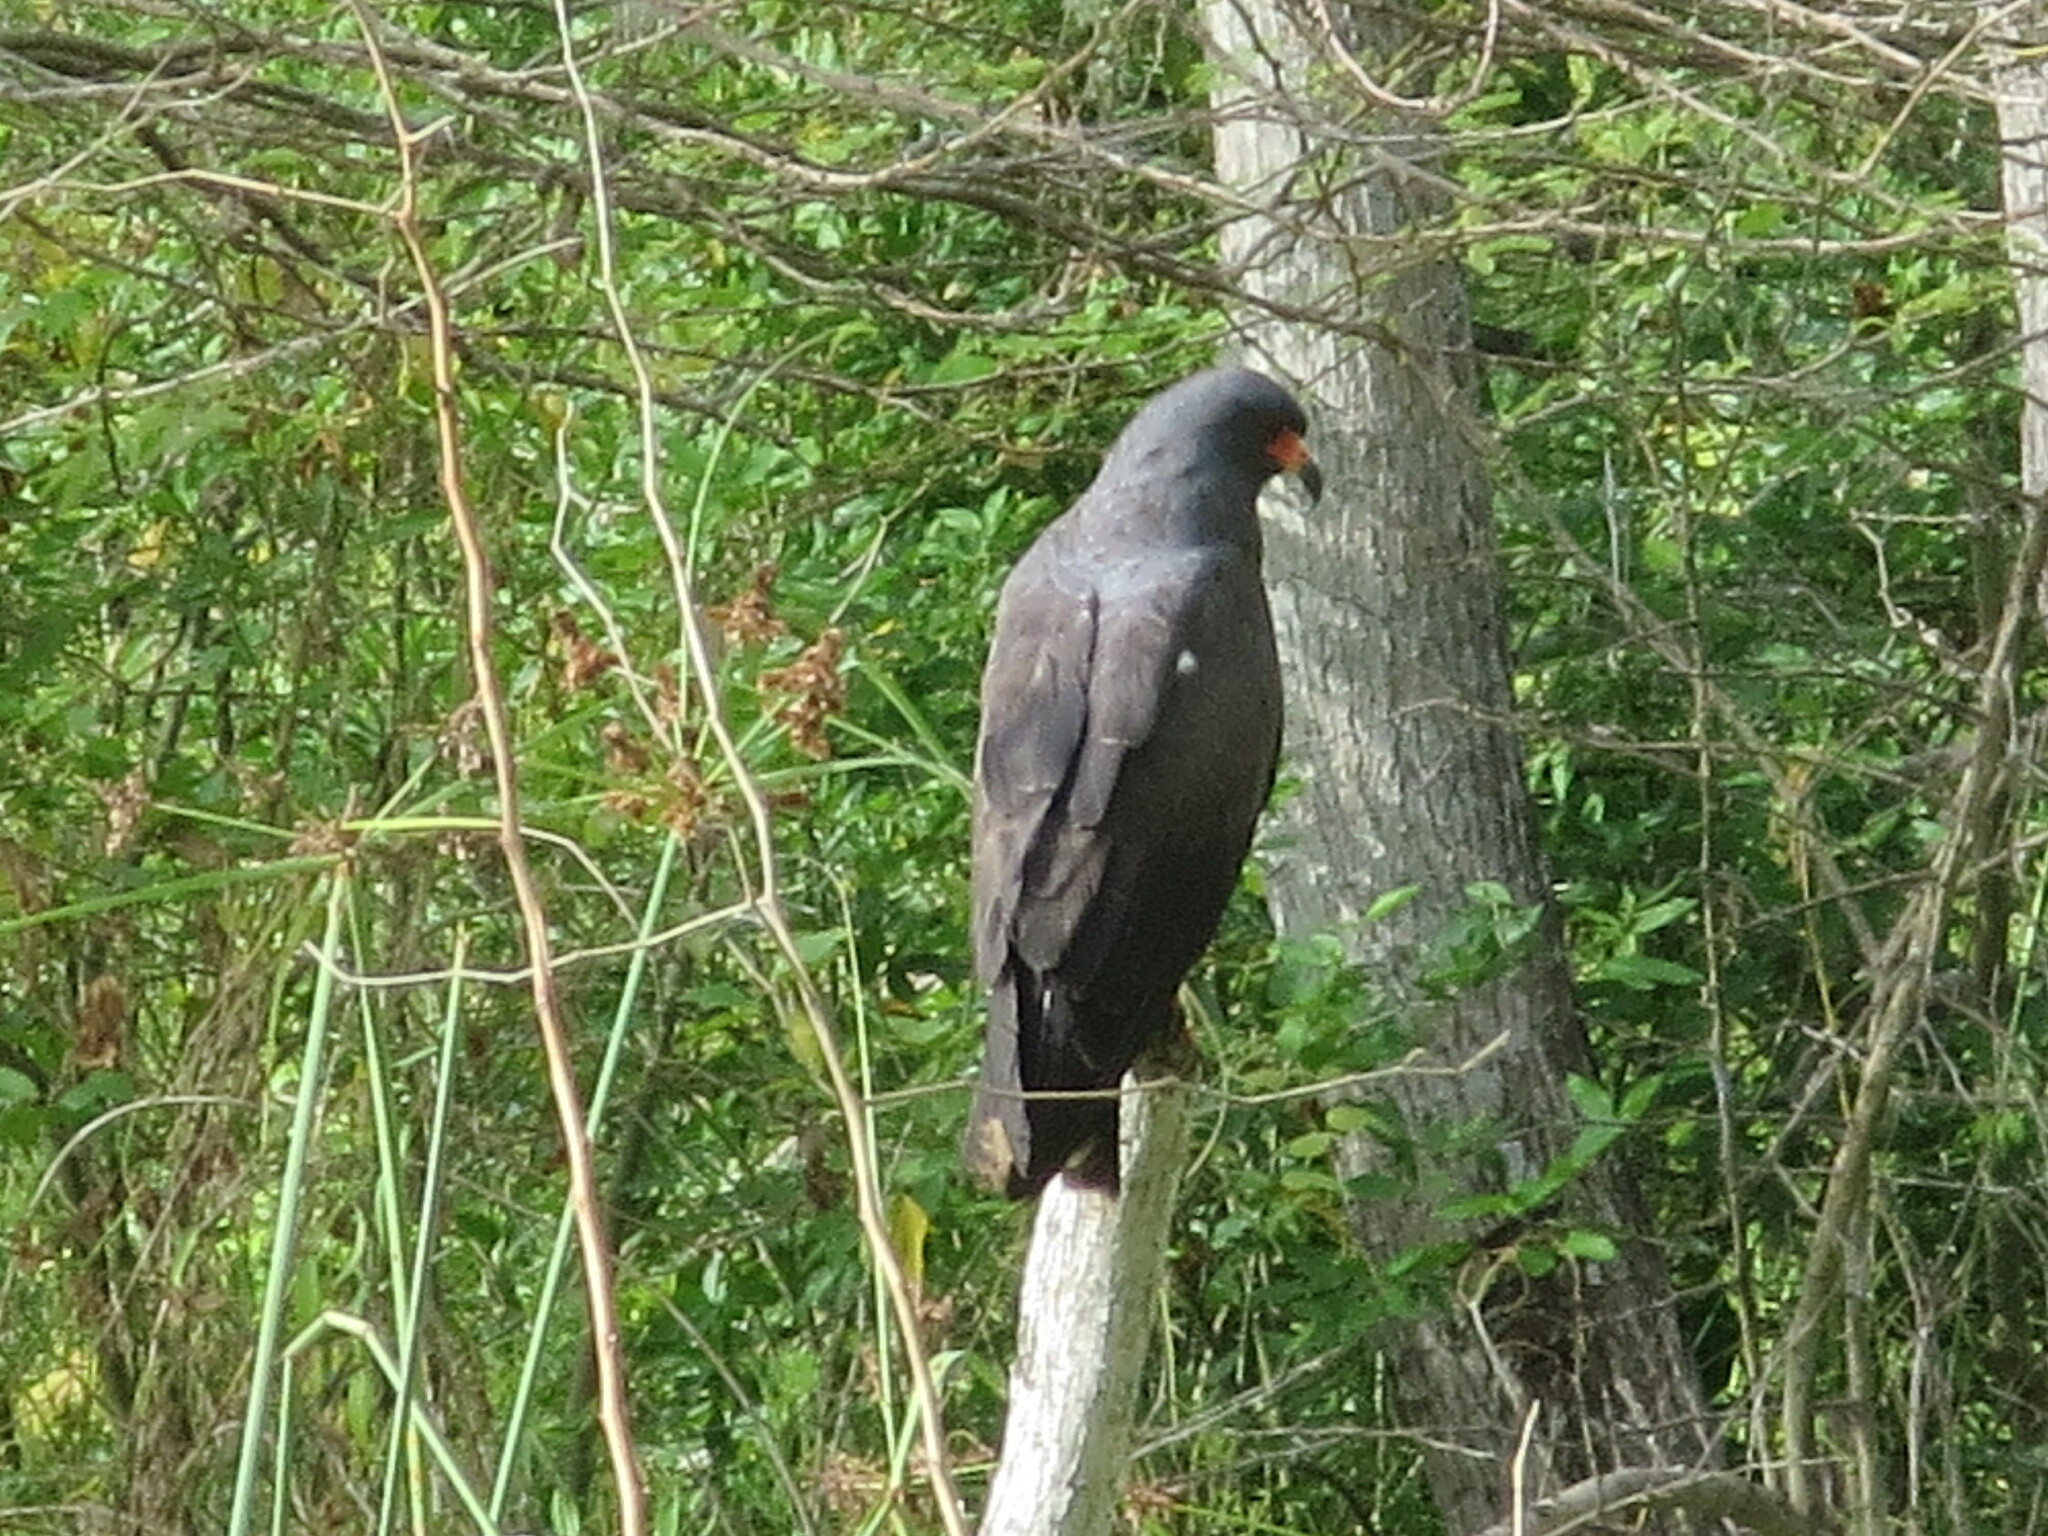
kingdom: Animalia
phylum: Chordata
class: Aves
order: Accipitriformes
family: Accipitridae
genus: Rostrhamus
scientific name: Rostrhamus sociabilis
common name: Snail kite
